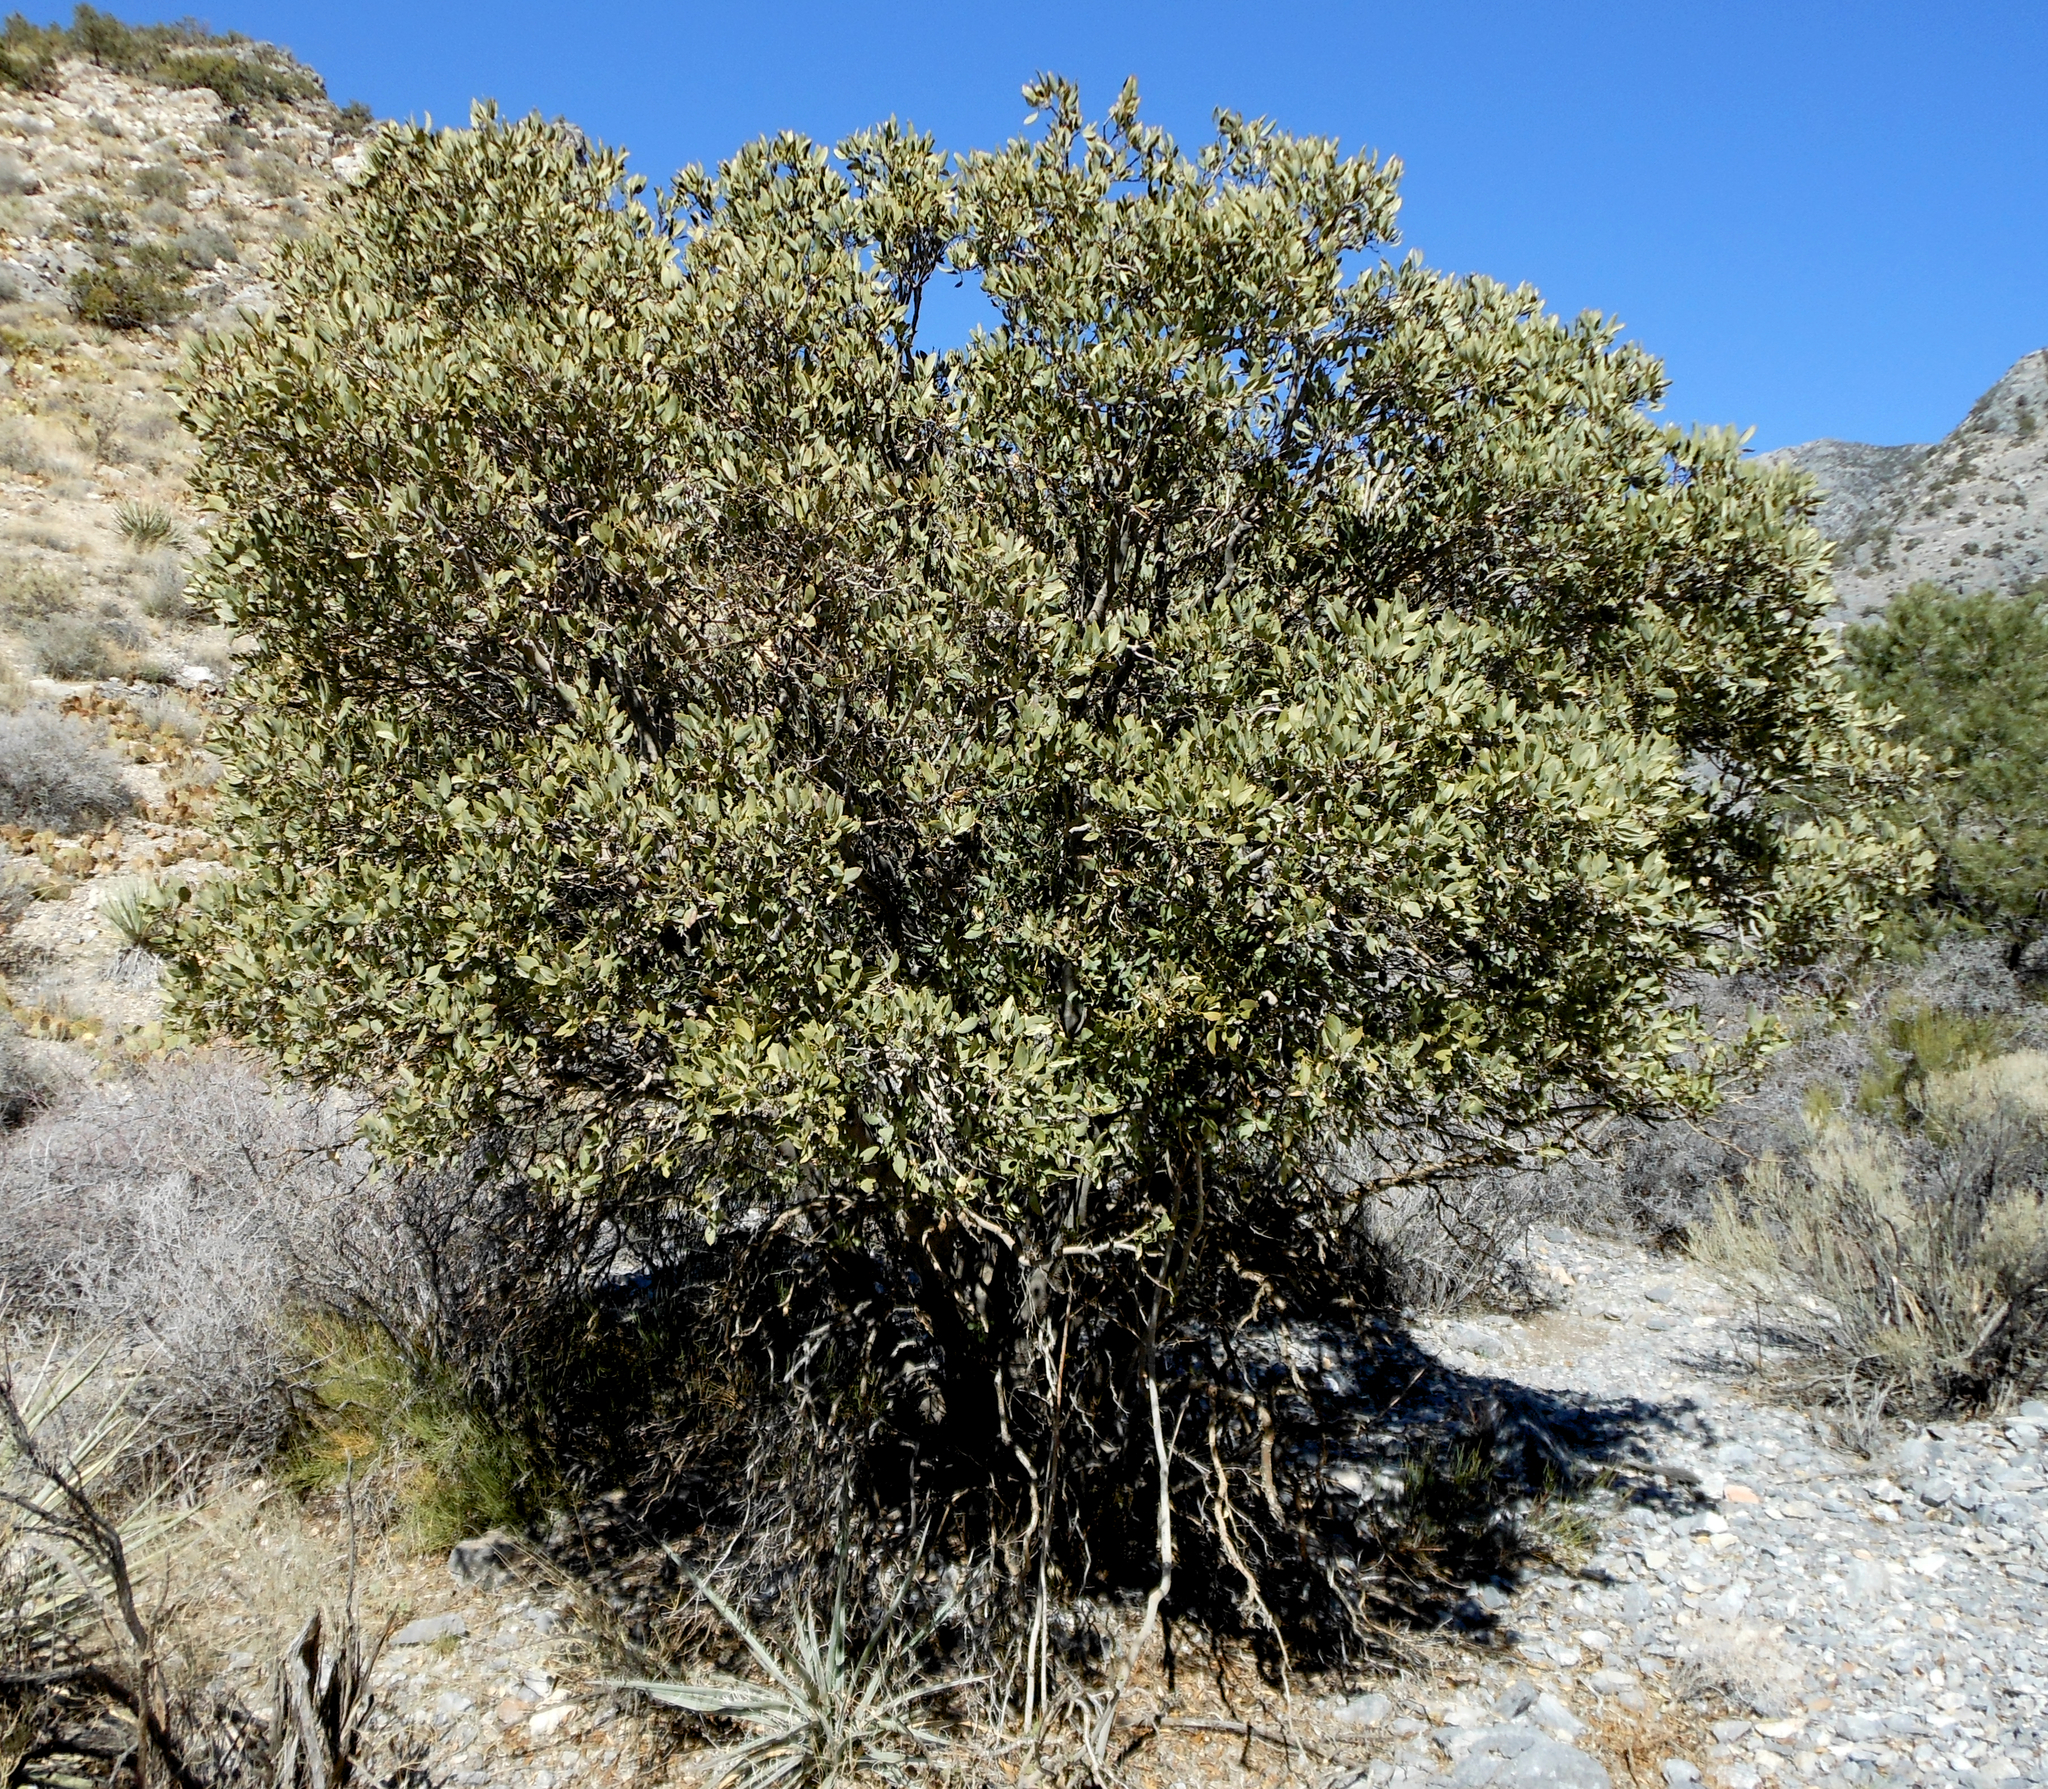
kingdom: Plantae
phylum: Tracheophyta
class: Magnoliopsida
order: Garryales
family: Garryaceae
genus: Garrya
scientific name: Garrya flavescens
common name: Ashy silk-tassel
